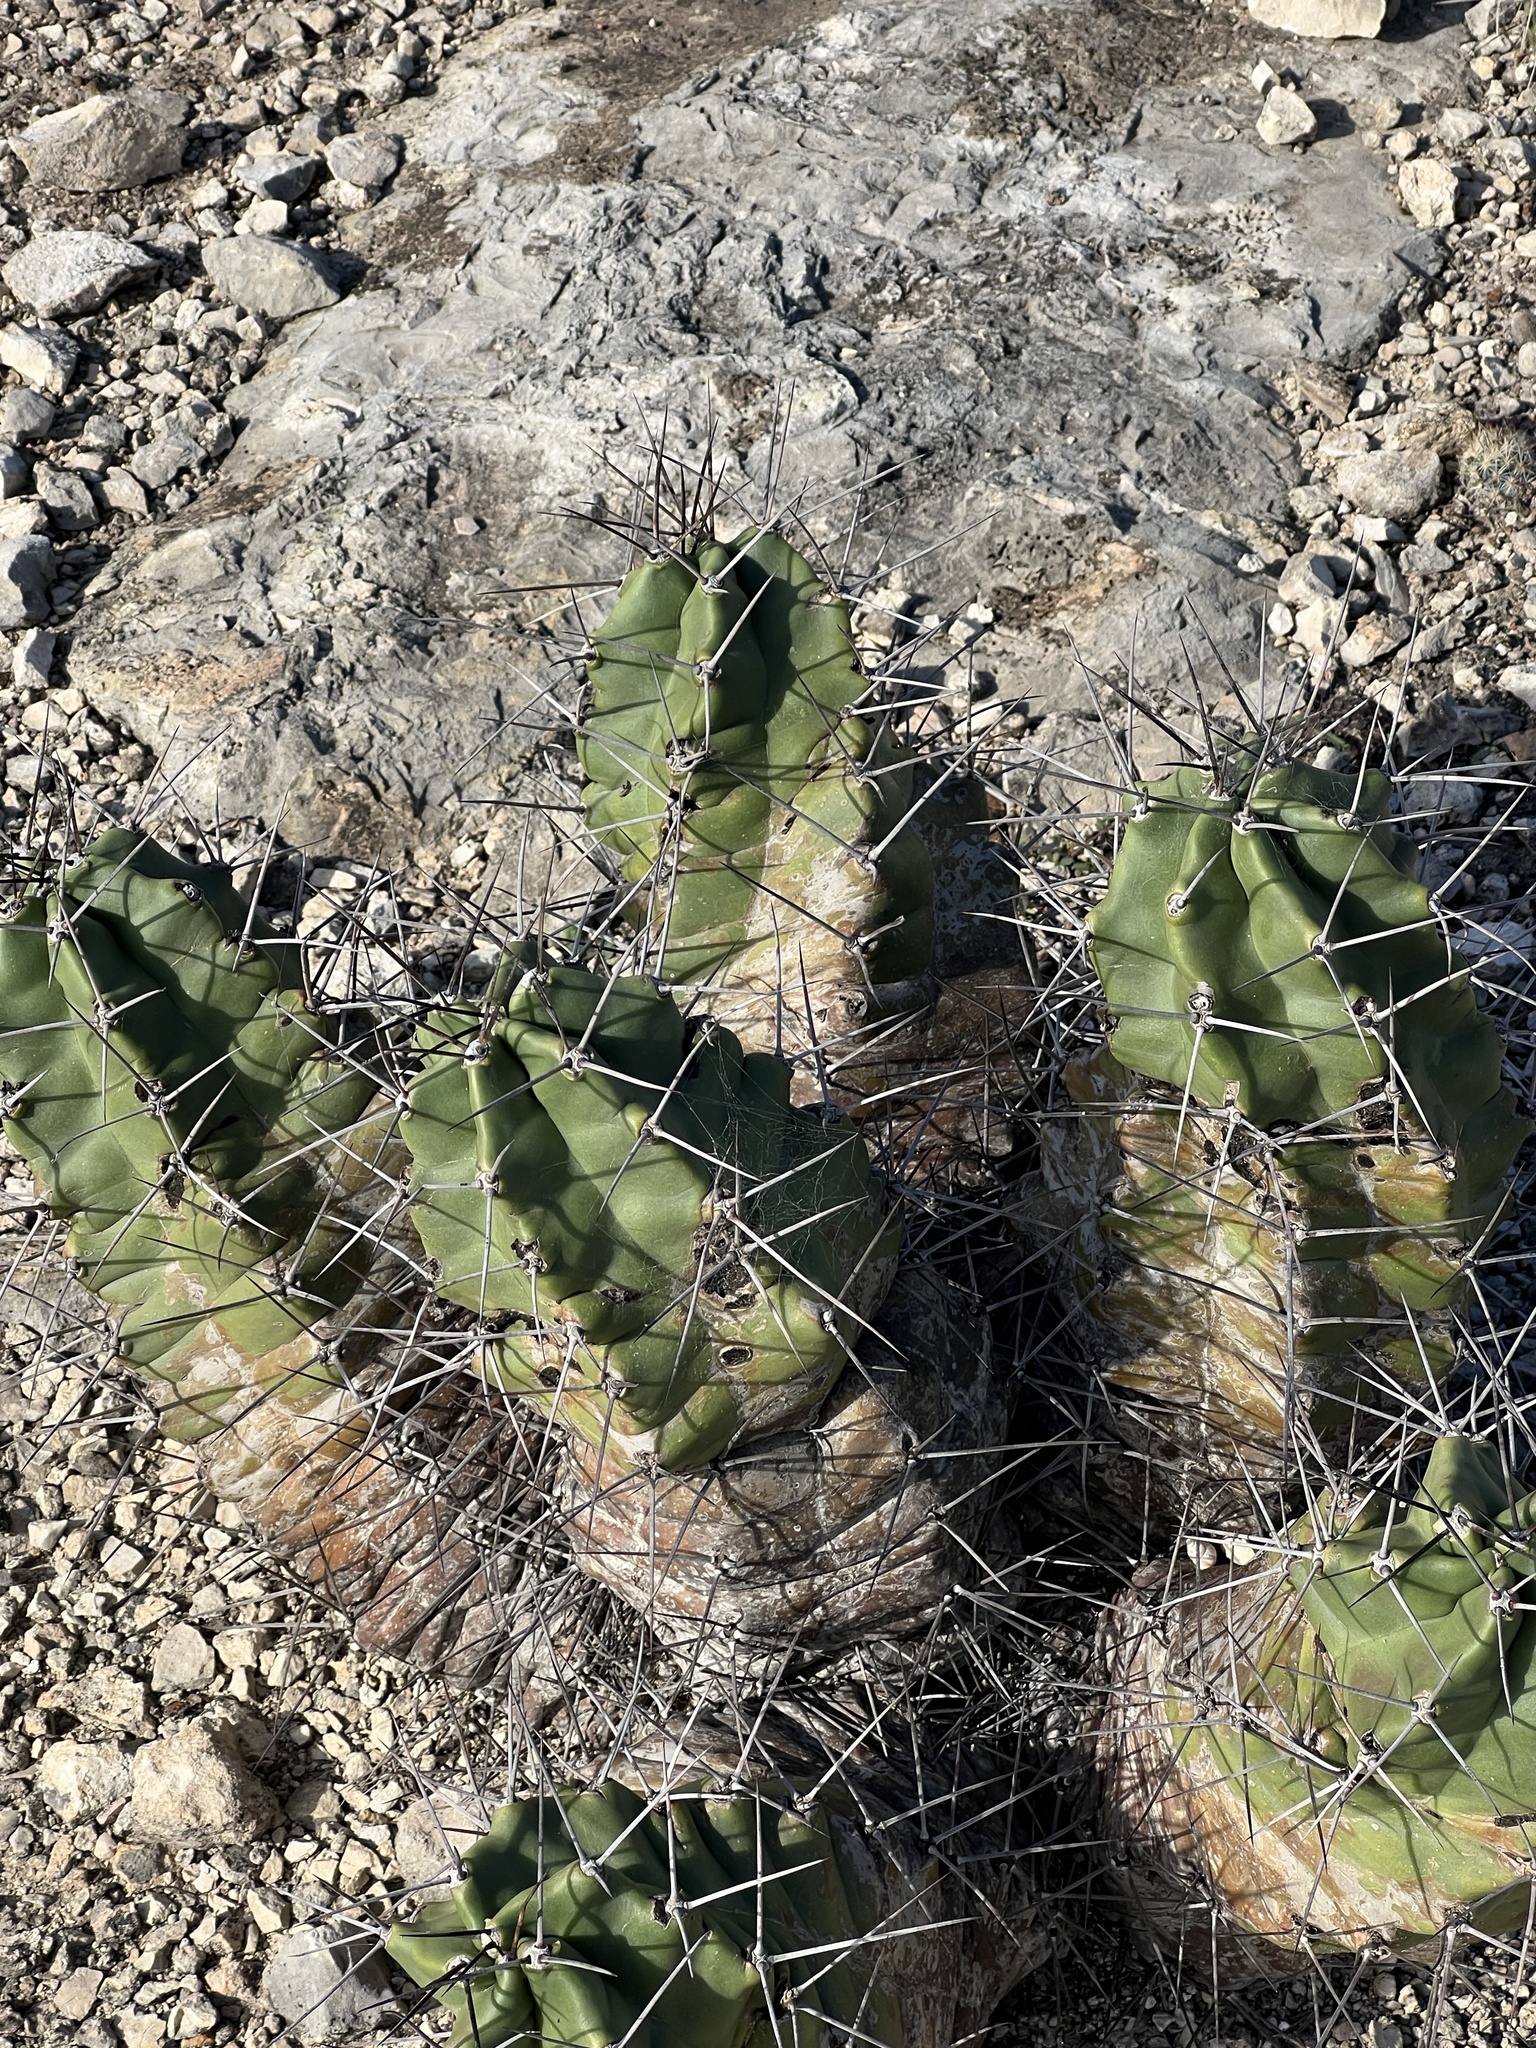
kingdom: Plantae
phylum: Tracheophyta
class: Magnoliopsida
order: Caryophyllales
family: Cactaceae
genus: Echinocereus
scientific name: Echinocereus coccineus
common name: Scarlet hedgehog cactus
